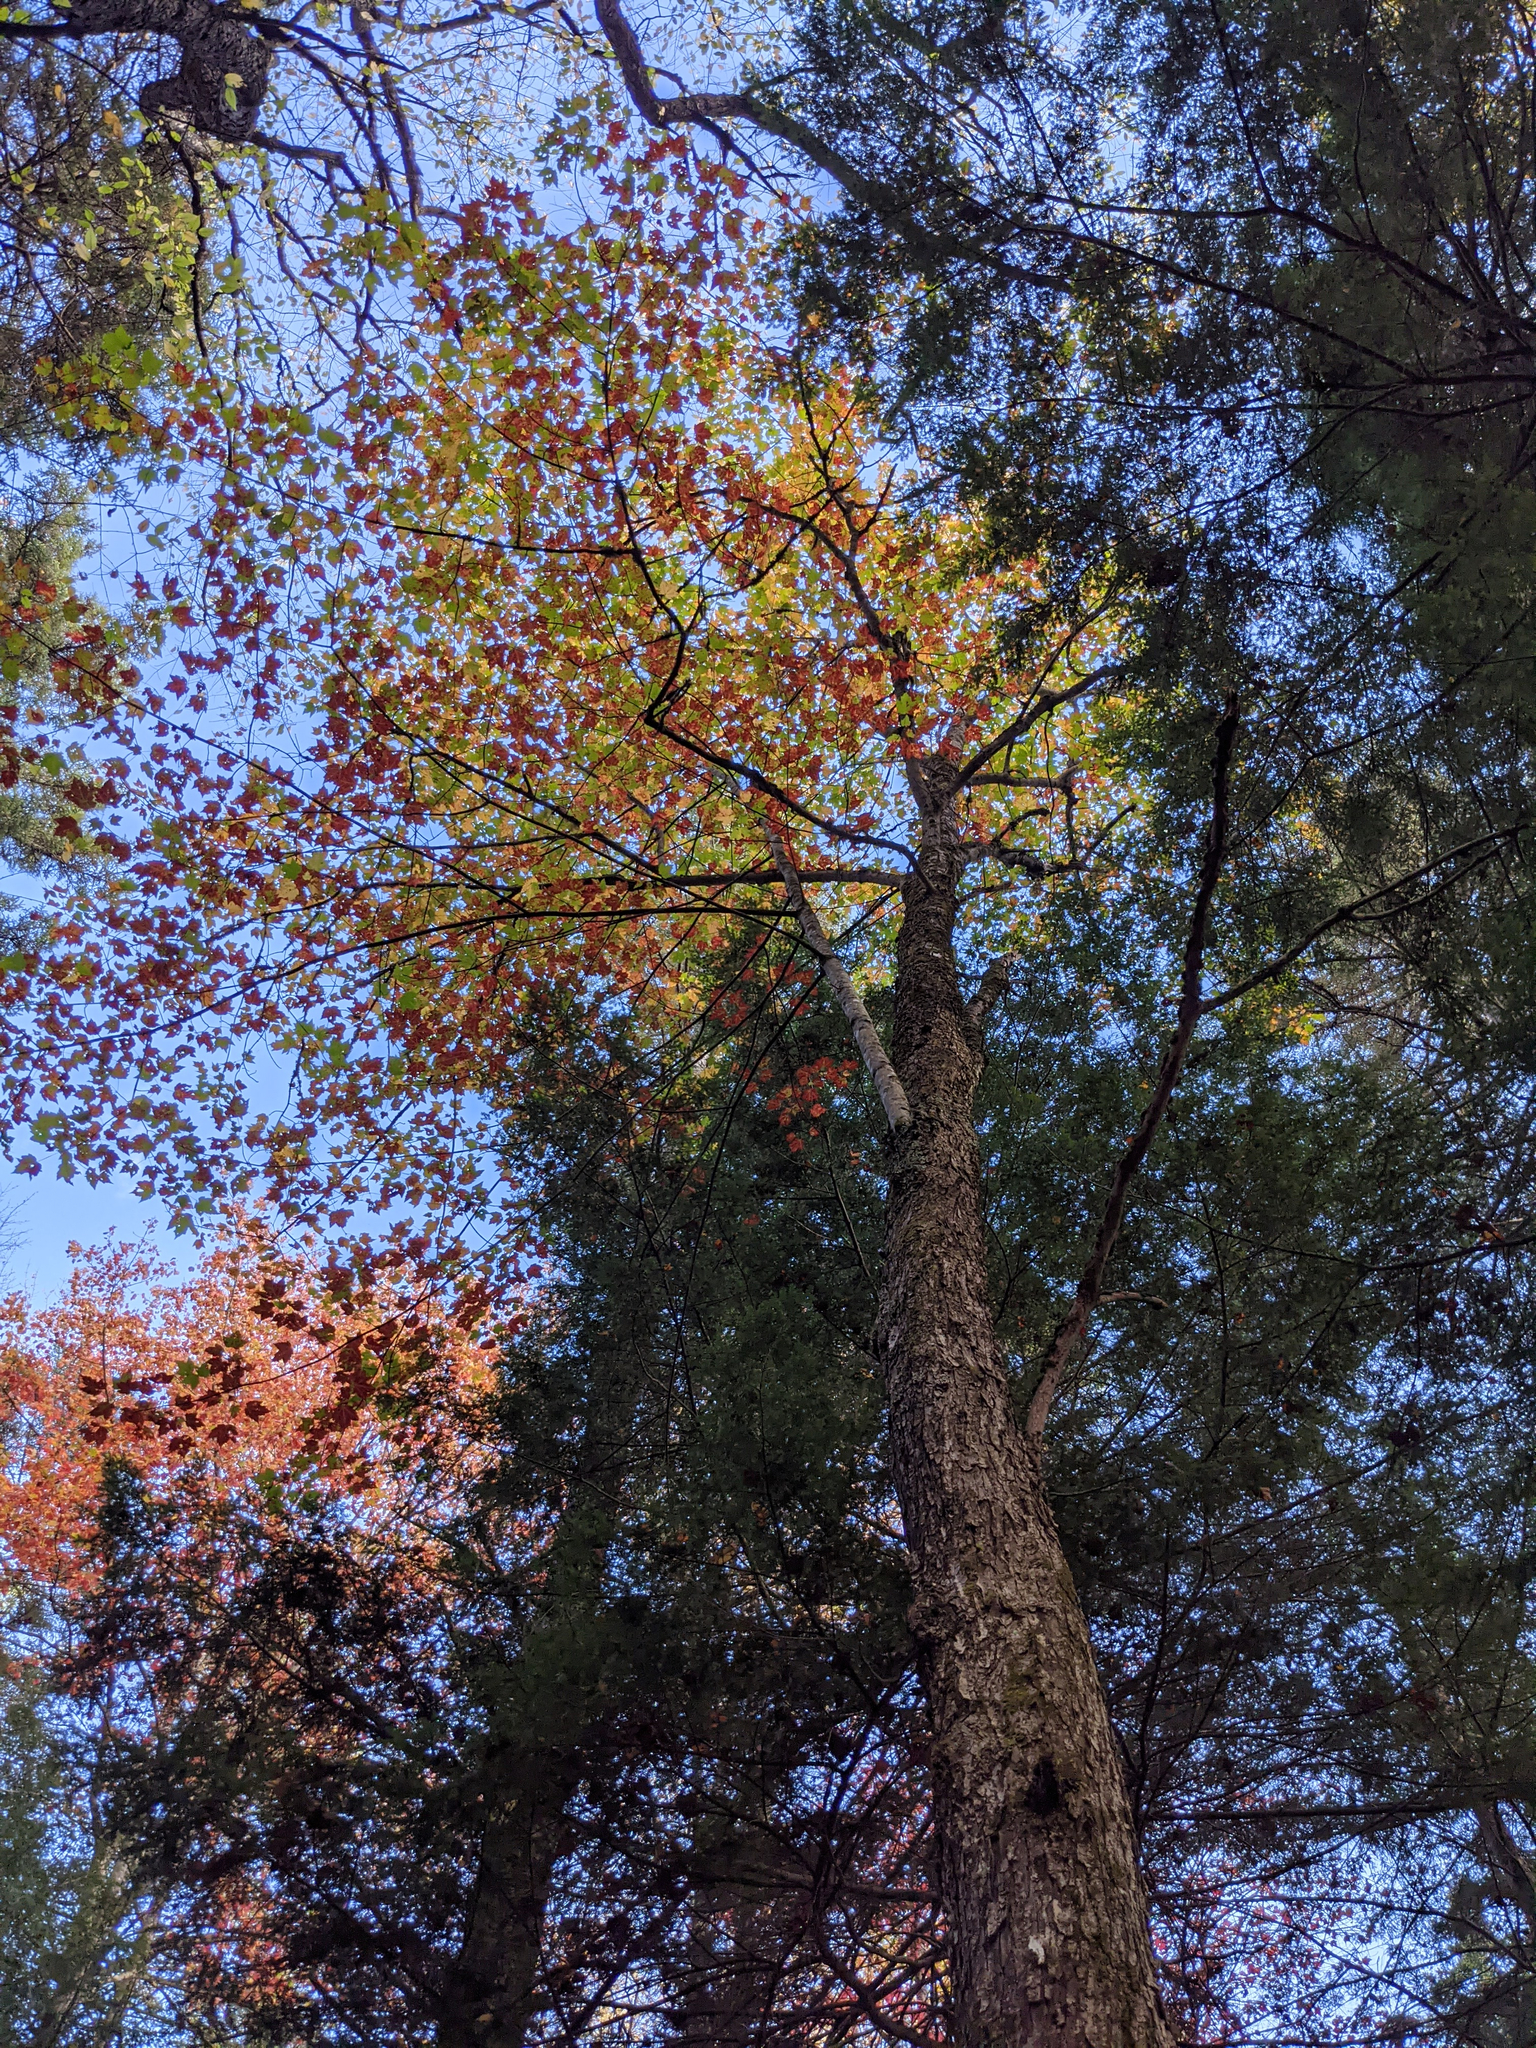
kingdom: Plantae
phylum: Tracheophyta
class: Magnoliopsida
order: Sapindales
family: Sapindaceae
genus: Acer
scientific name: Acer rubrum
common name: Red maple
